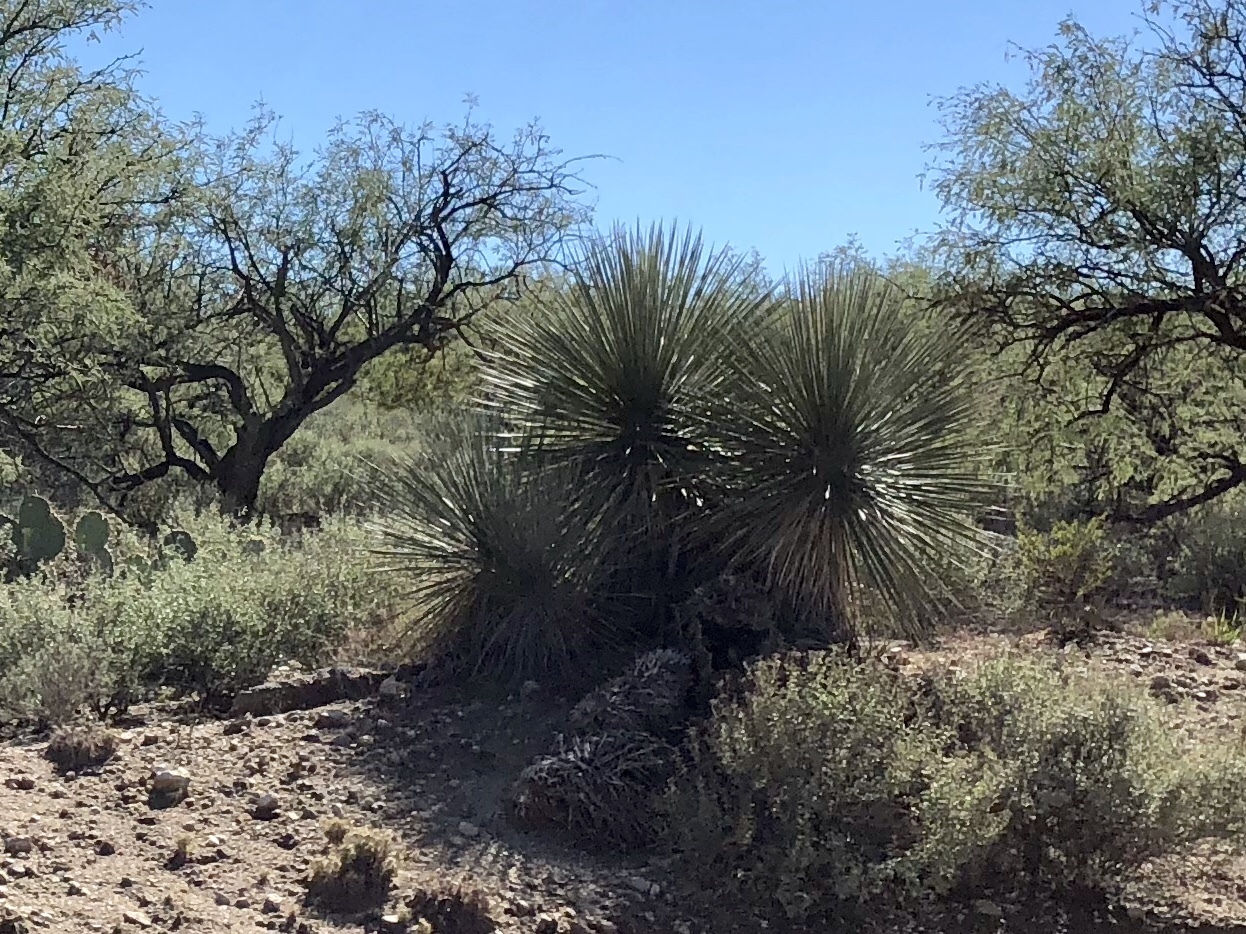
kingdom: Plantae
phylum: Tracheophyta
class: Liliopsida
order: Asparagales
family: Asparagaceae
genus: Yucca
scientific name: Yucca elata
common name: Palmella
